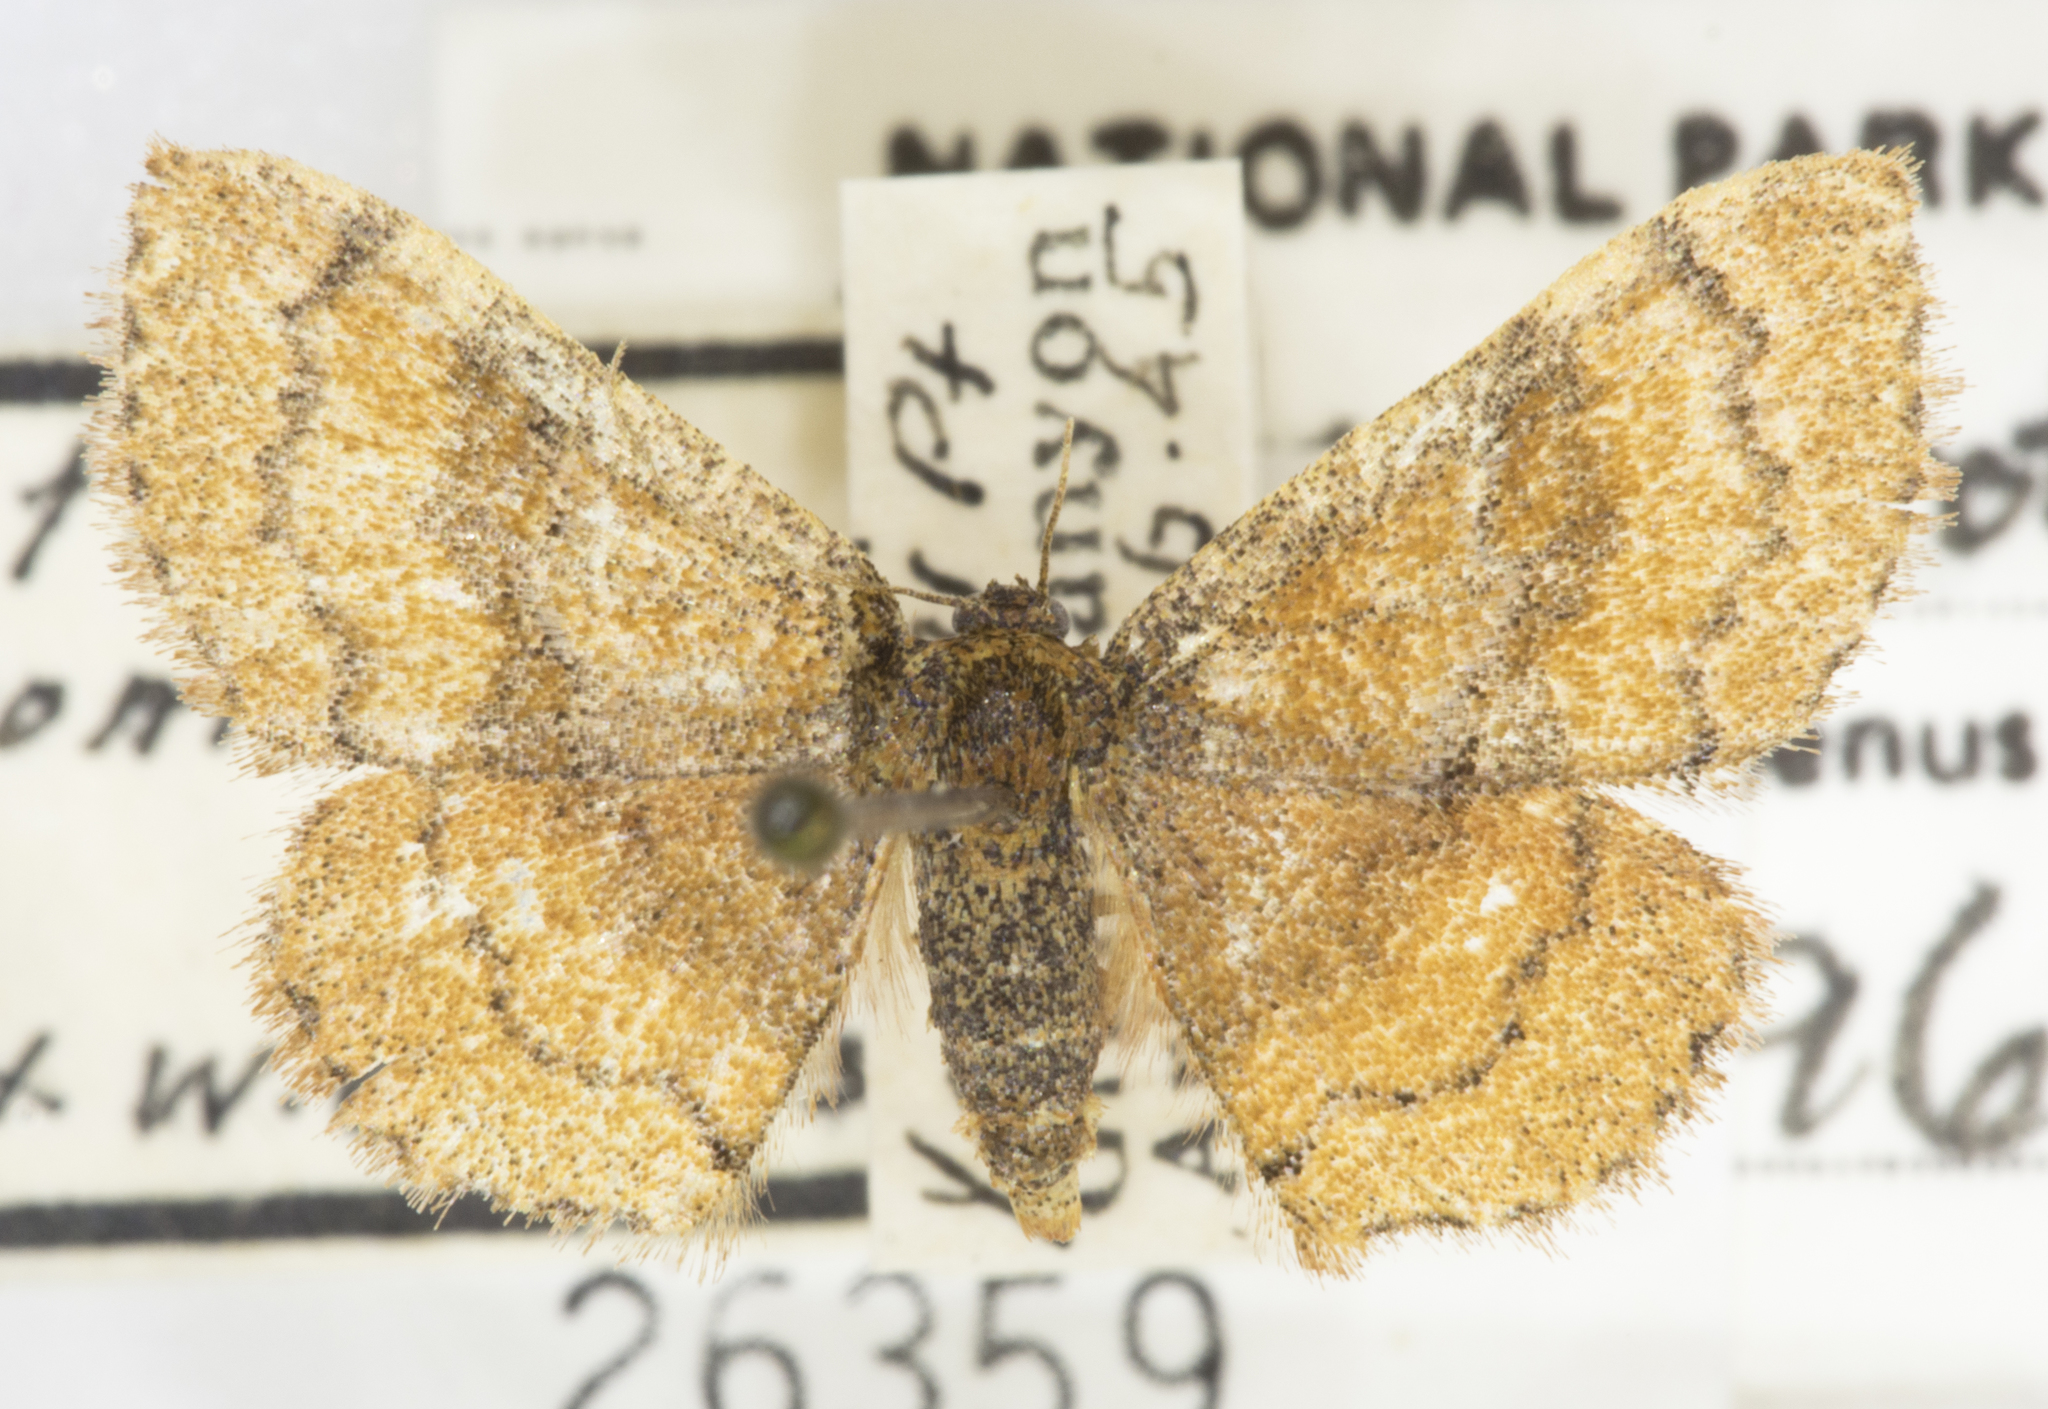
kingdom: Animalia
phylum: Arthropoda
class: Insecta
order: Lepidoptera
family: Geometridae
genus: Leptostales
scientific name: Leptostales rubromarginaria
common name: Dark-ribboned wave
